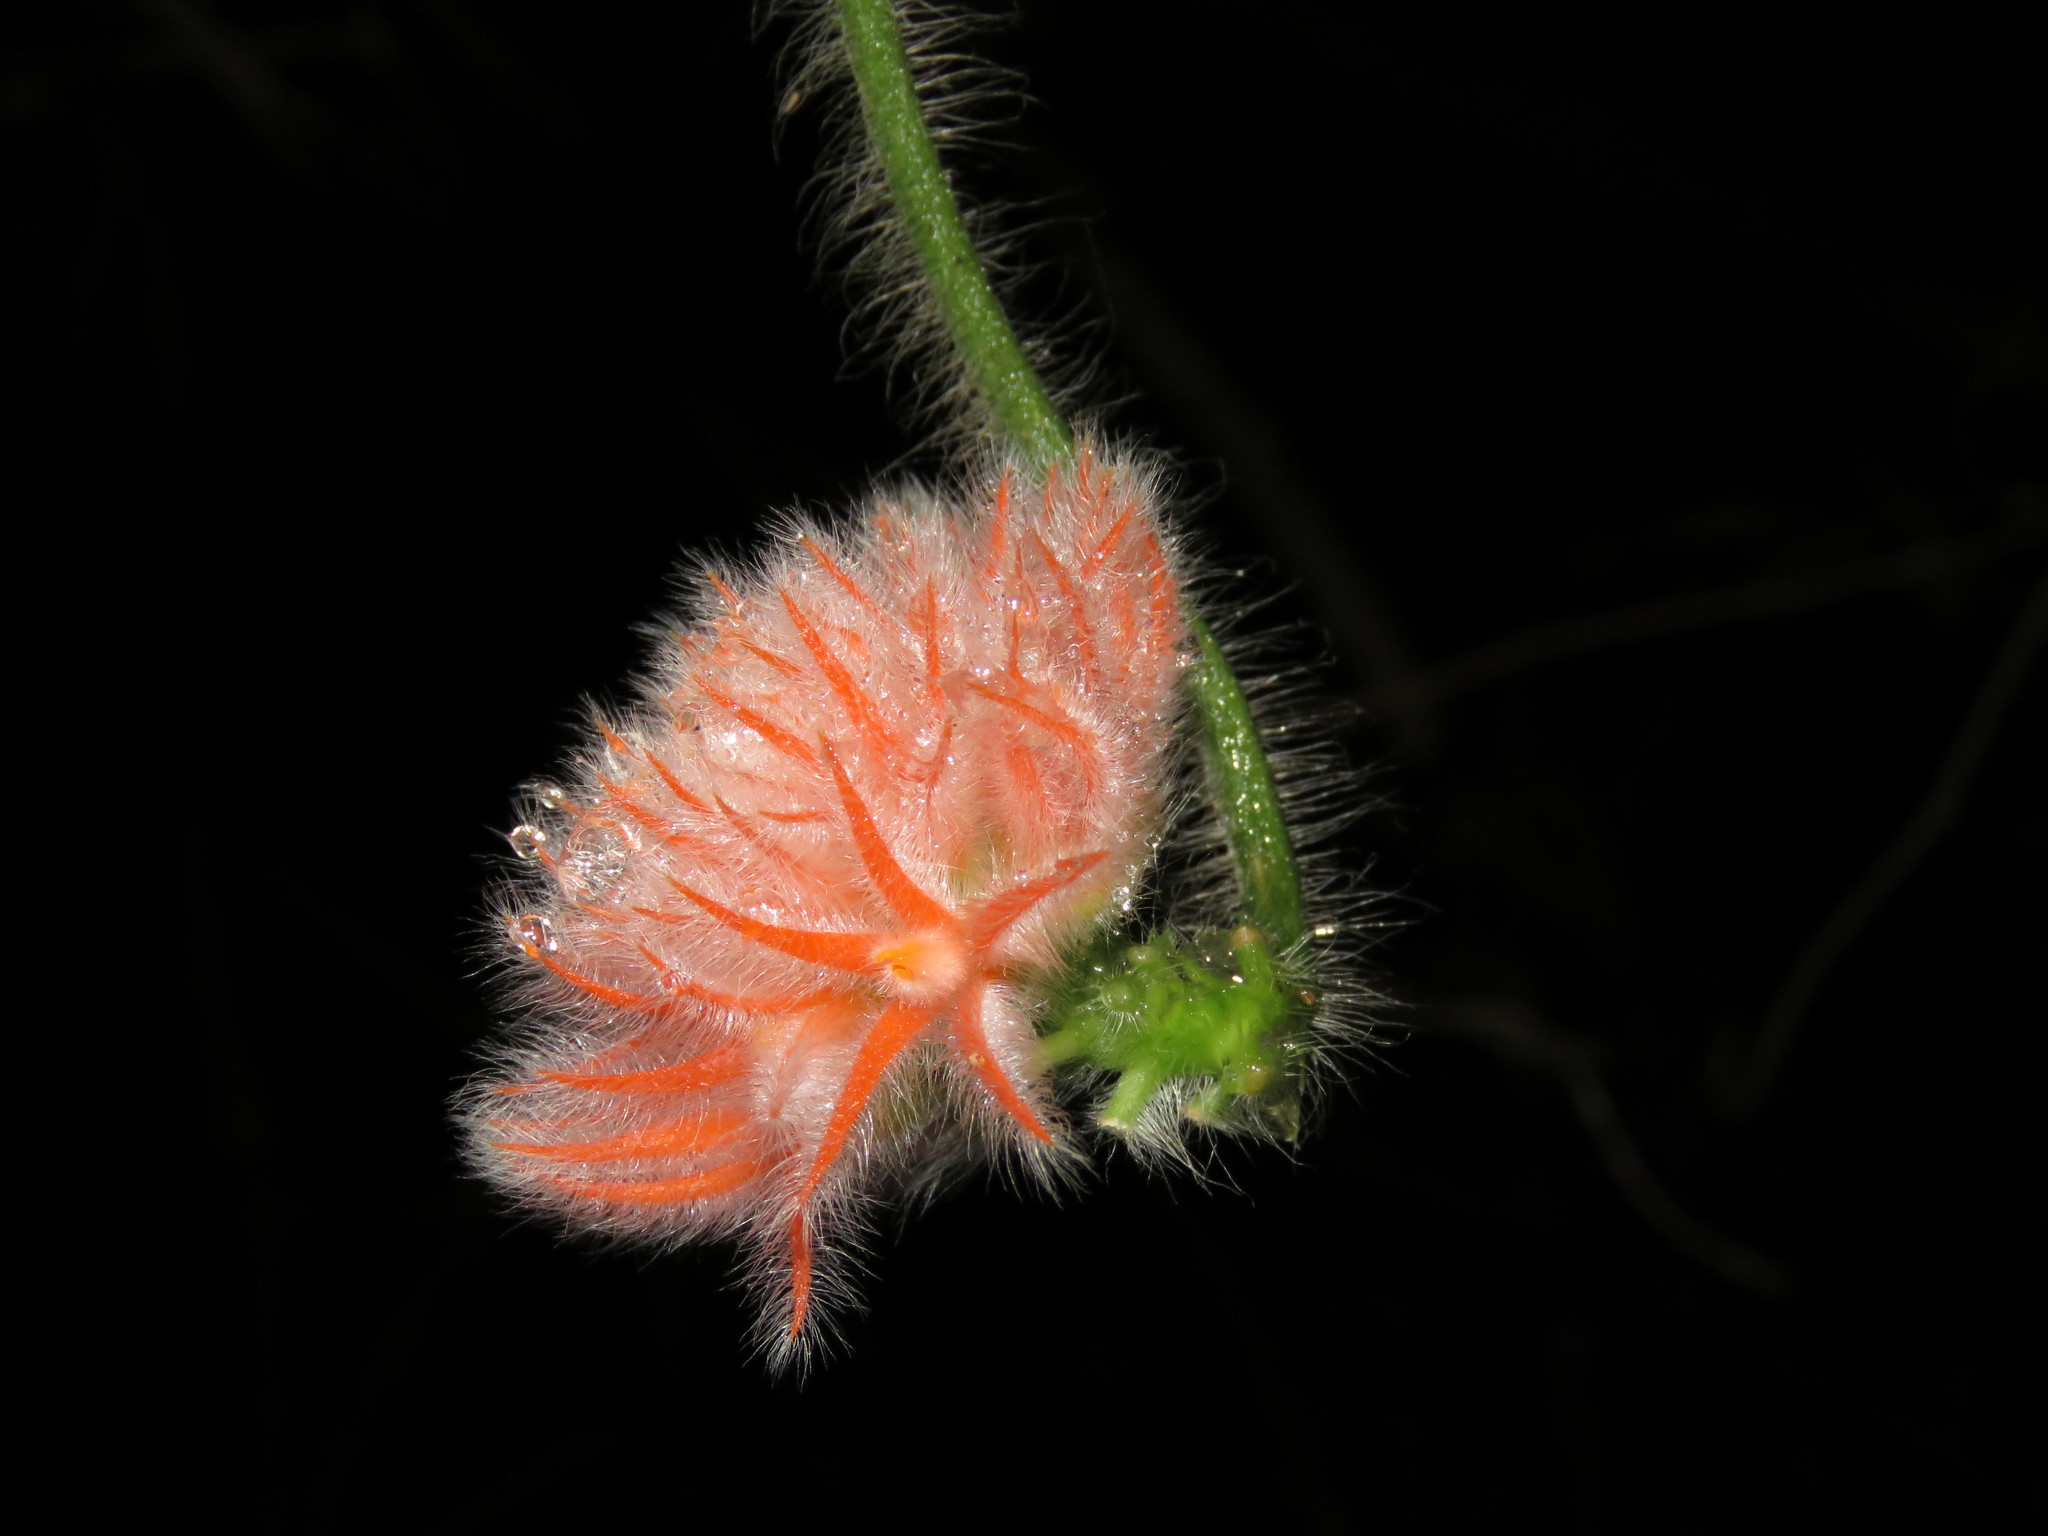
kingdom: Plantae
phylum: Tracheophyta
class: Magnoliopsida
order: Cucurbitales
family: Cucurbitaceae
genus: Gurania
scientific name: Gurania eriantha
